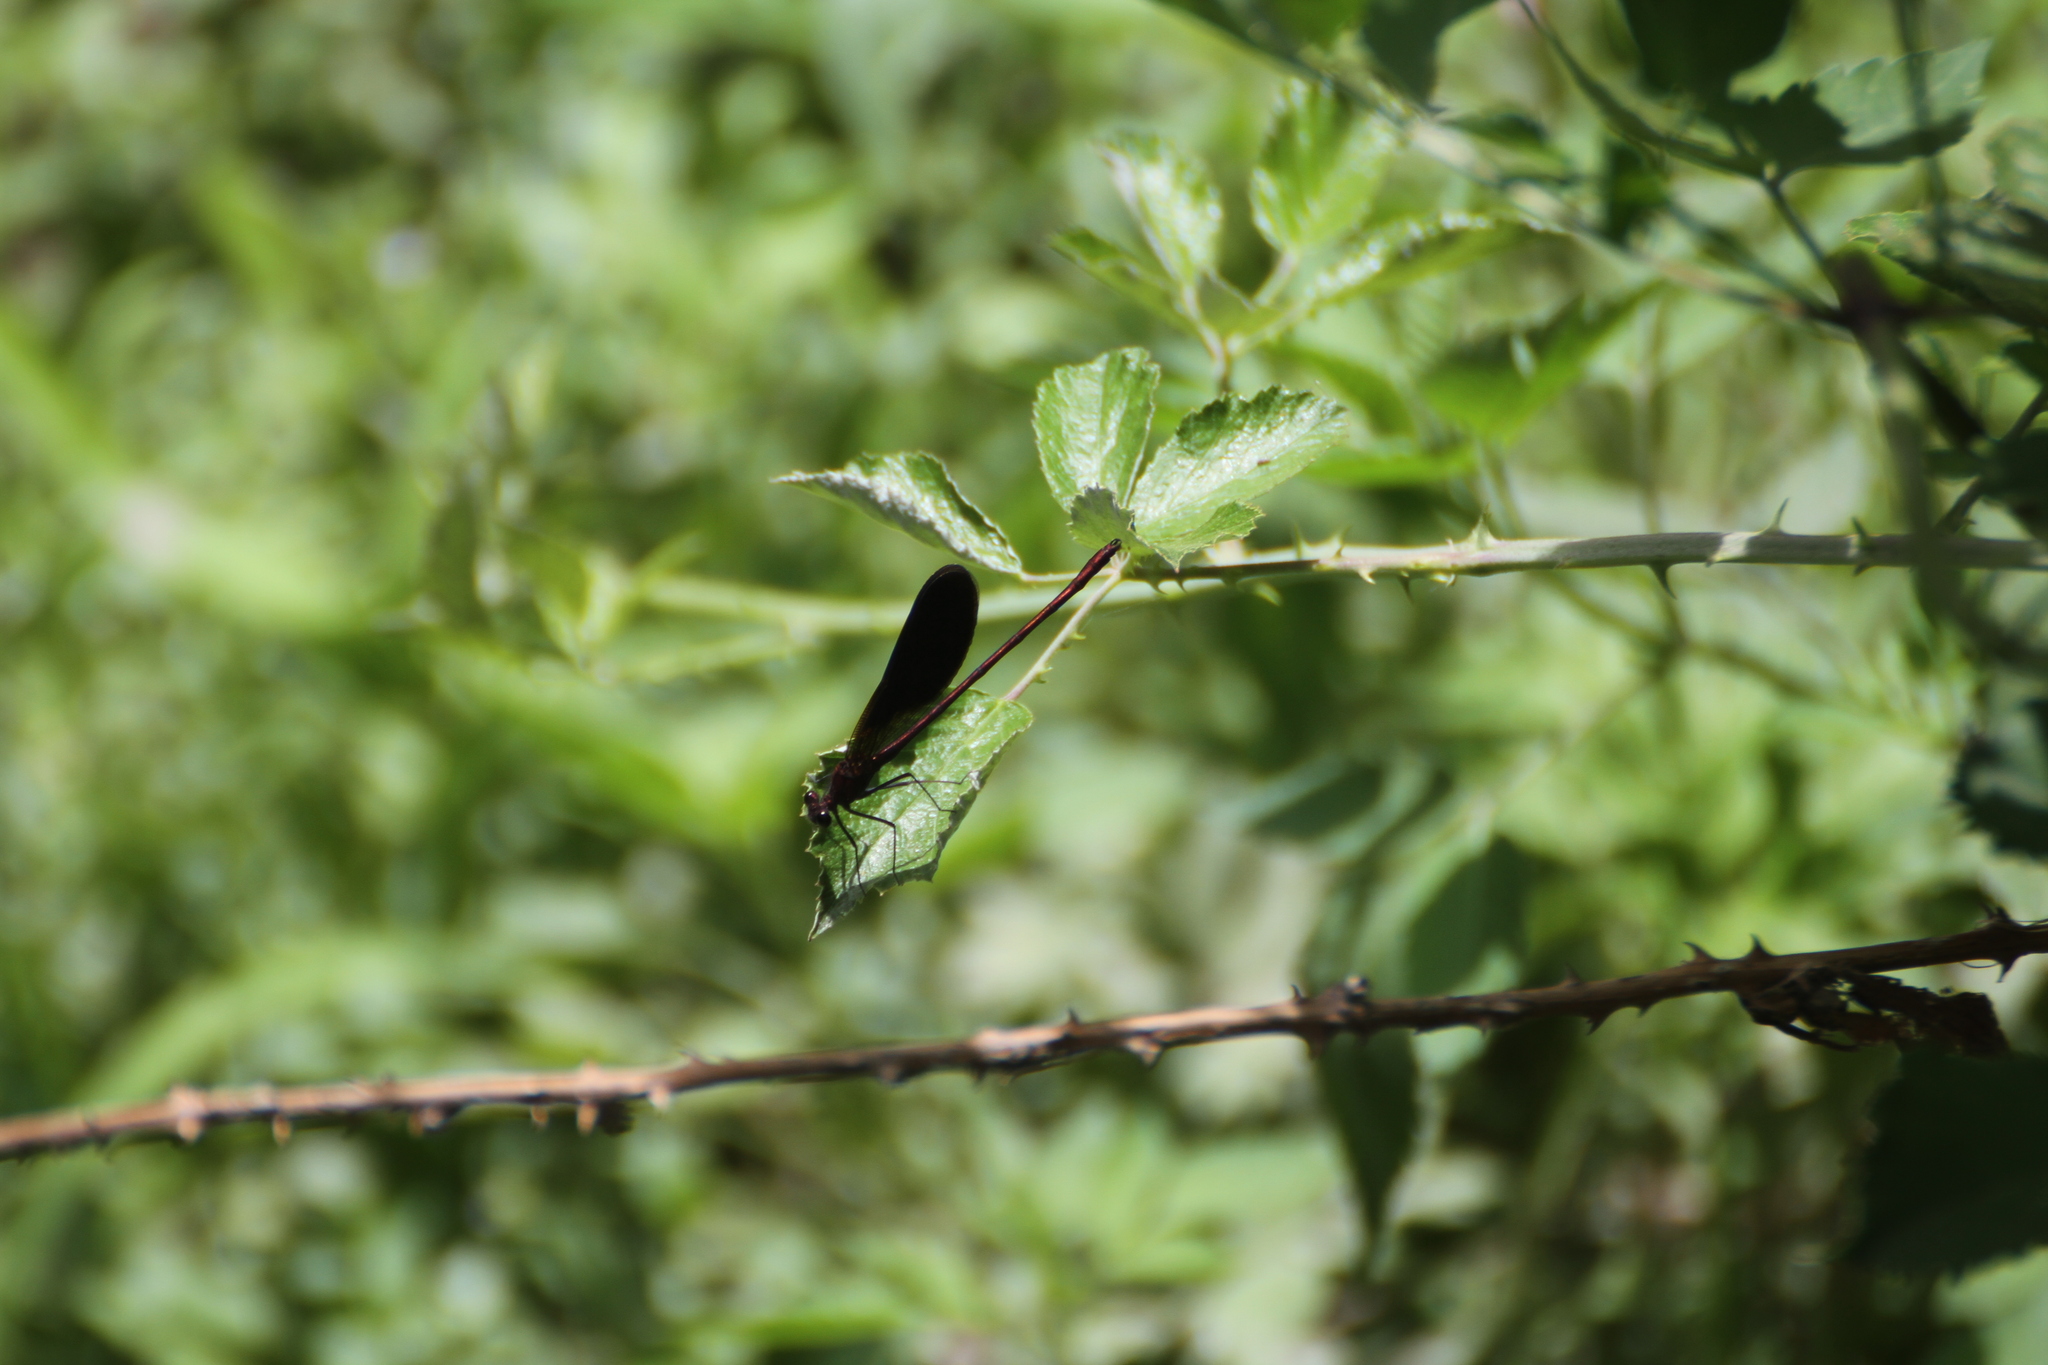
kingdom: Animalia
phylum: Arthropoda
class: Insecta
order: Odonata
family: Calopterygidae
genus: Calopteryx
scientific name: Calopteryx haemorrhoidalis
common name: Copper demoiselle
